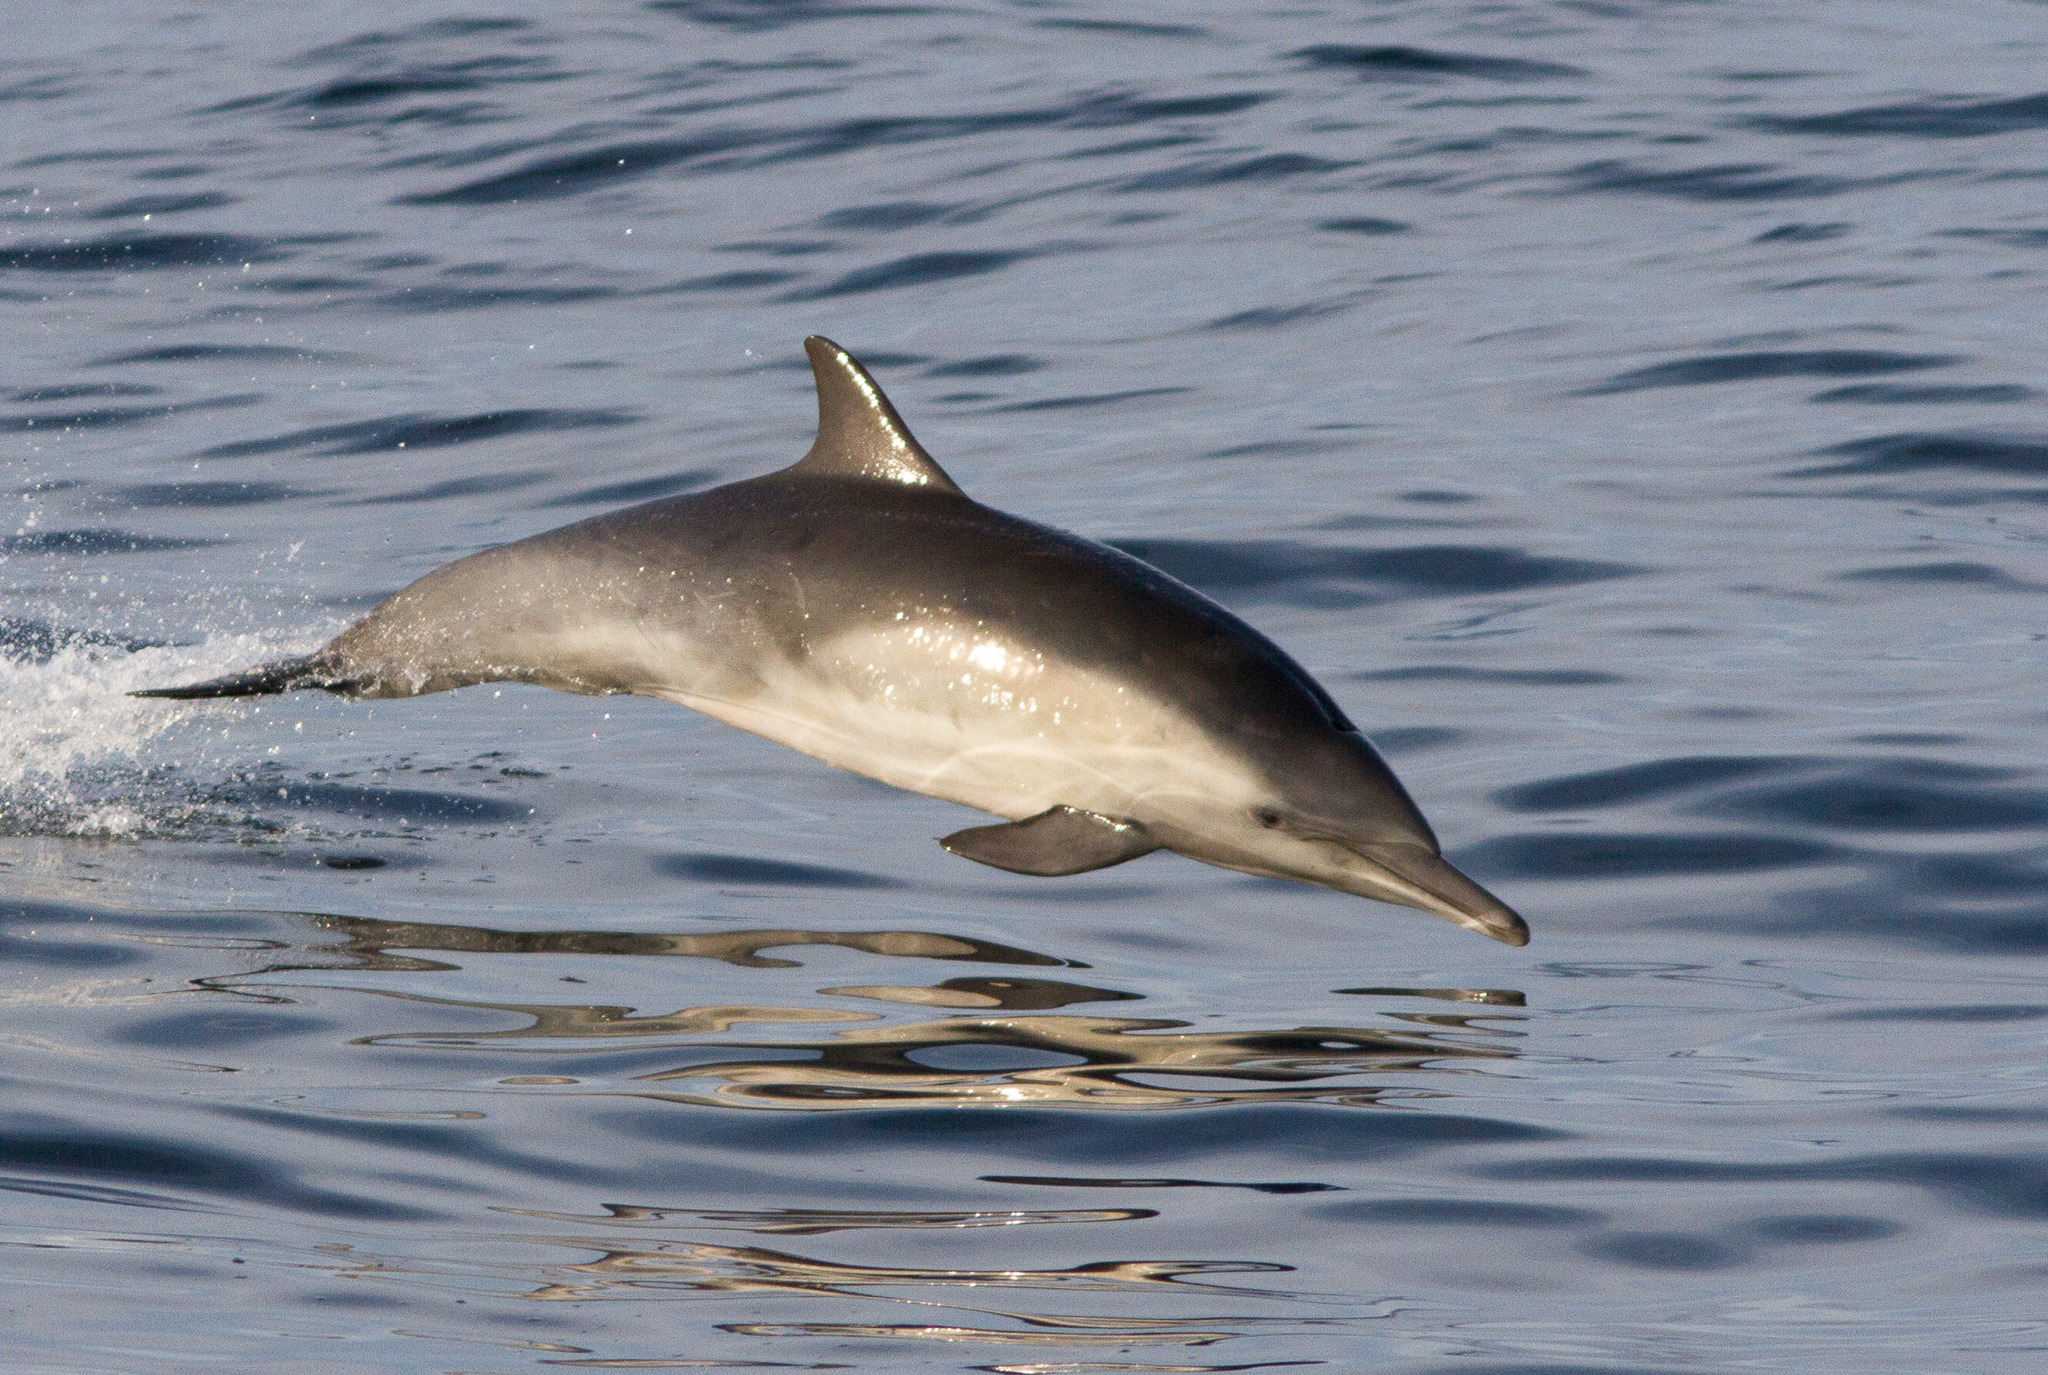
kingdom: Animalia
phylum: Chordata
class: Mammalia
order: Cetacea
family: Delphinidae
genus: Delphinus
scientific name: Delphinus delphis
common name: Common dolphin
